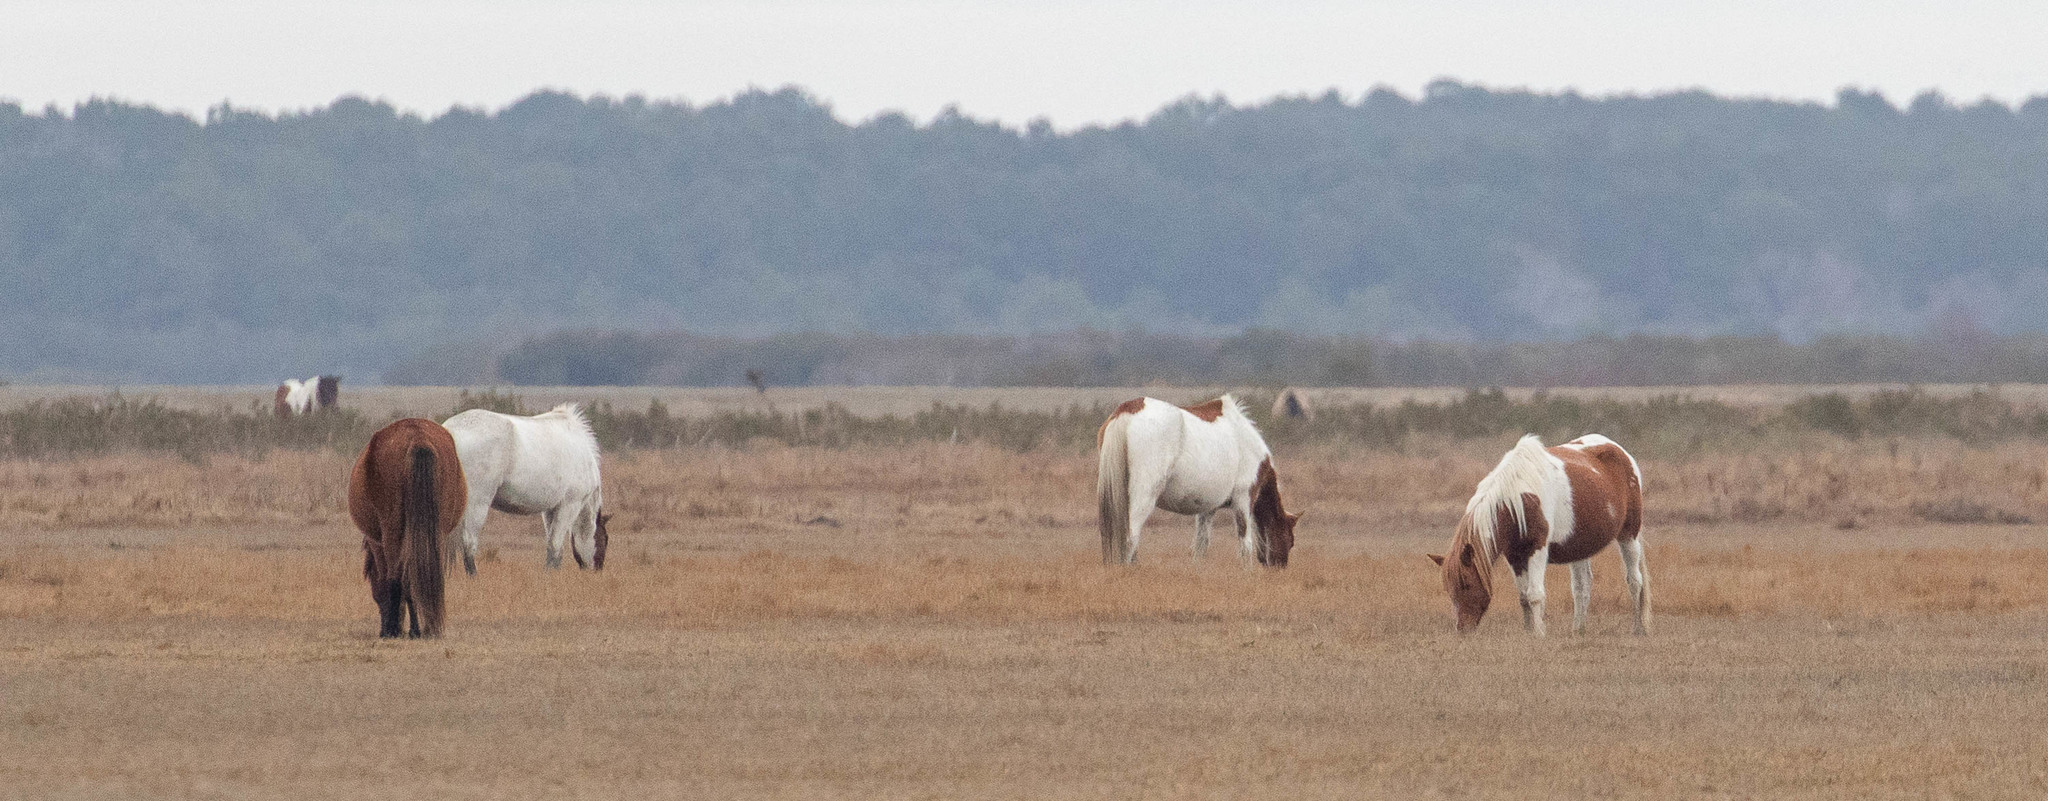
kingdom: Animalia
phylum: Chordata
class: Mammalia
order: Perissodactyla
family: Equidae
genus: Equus
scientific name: Equus caballus
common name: Horse
